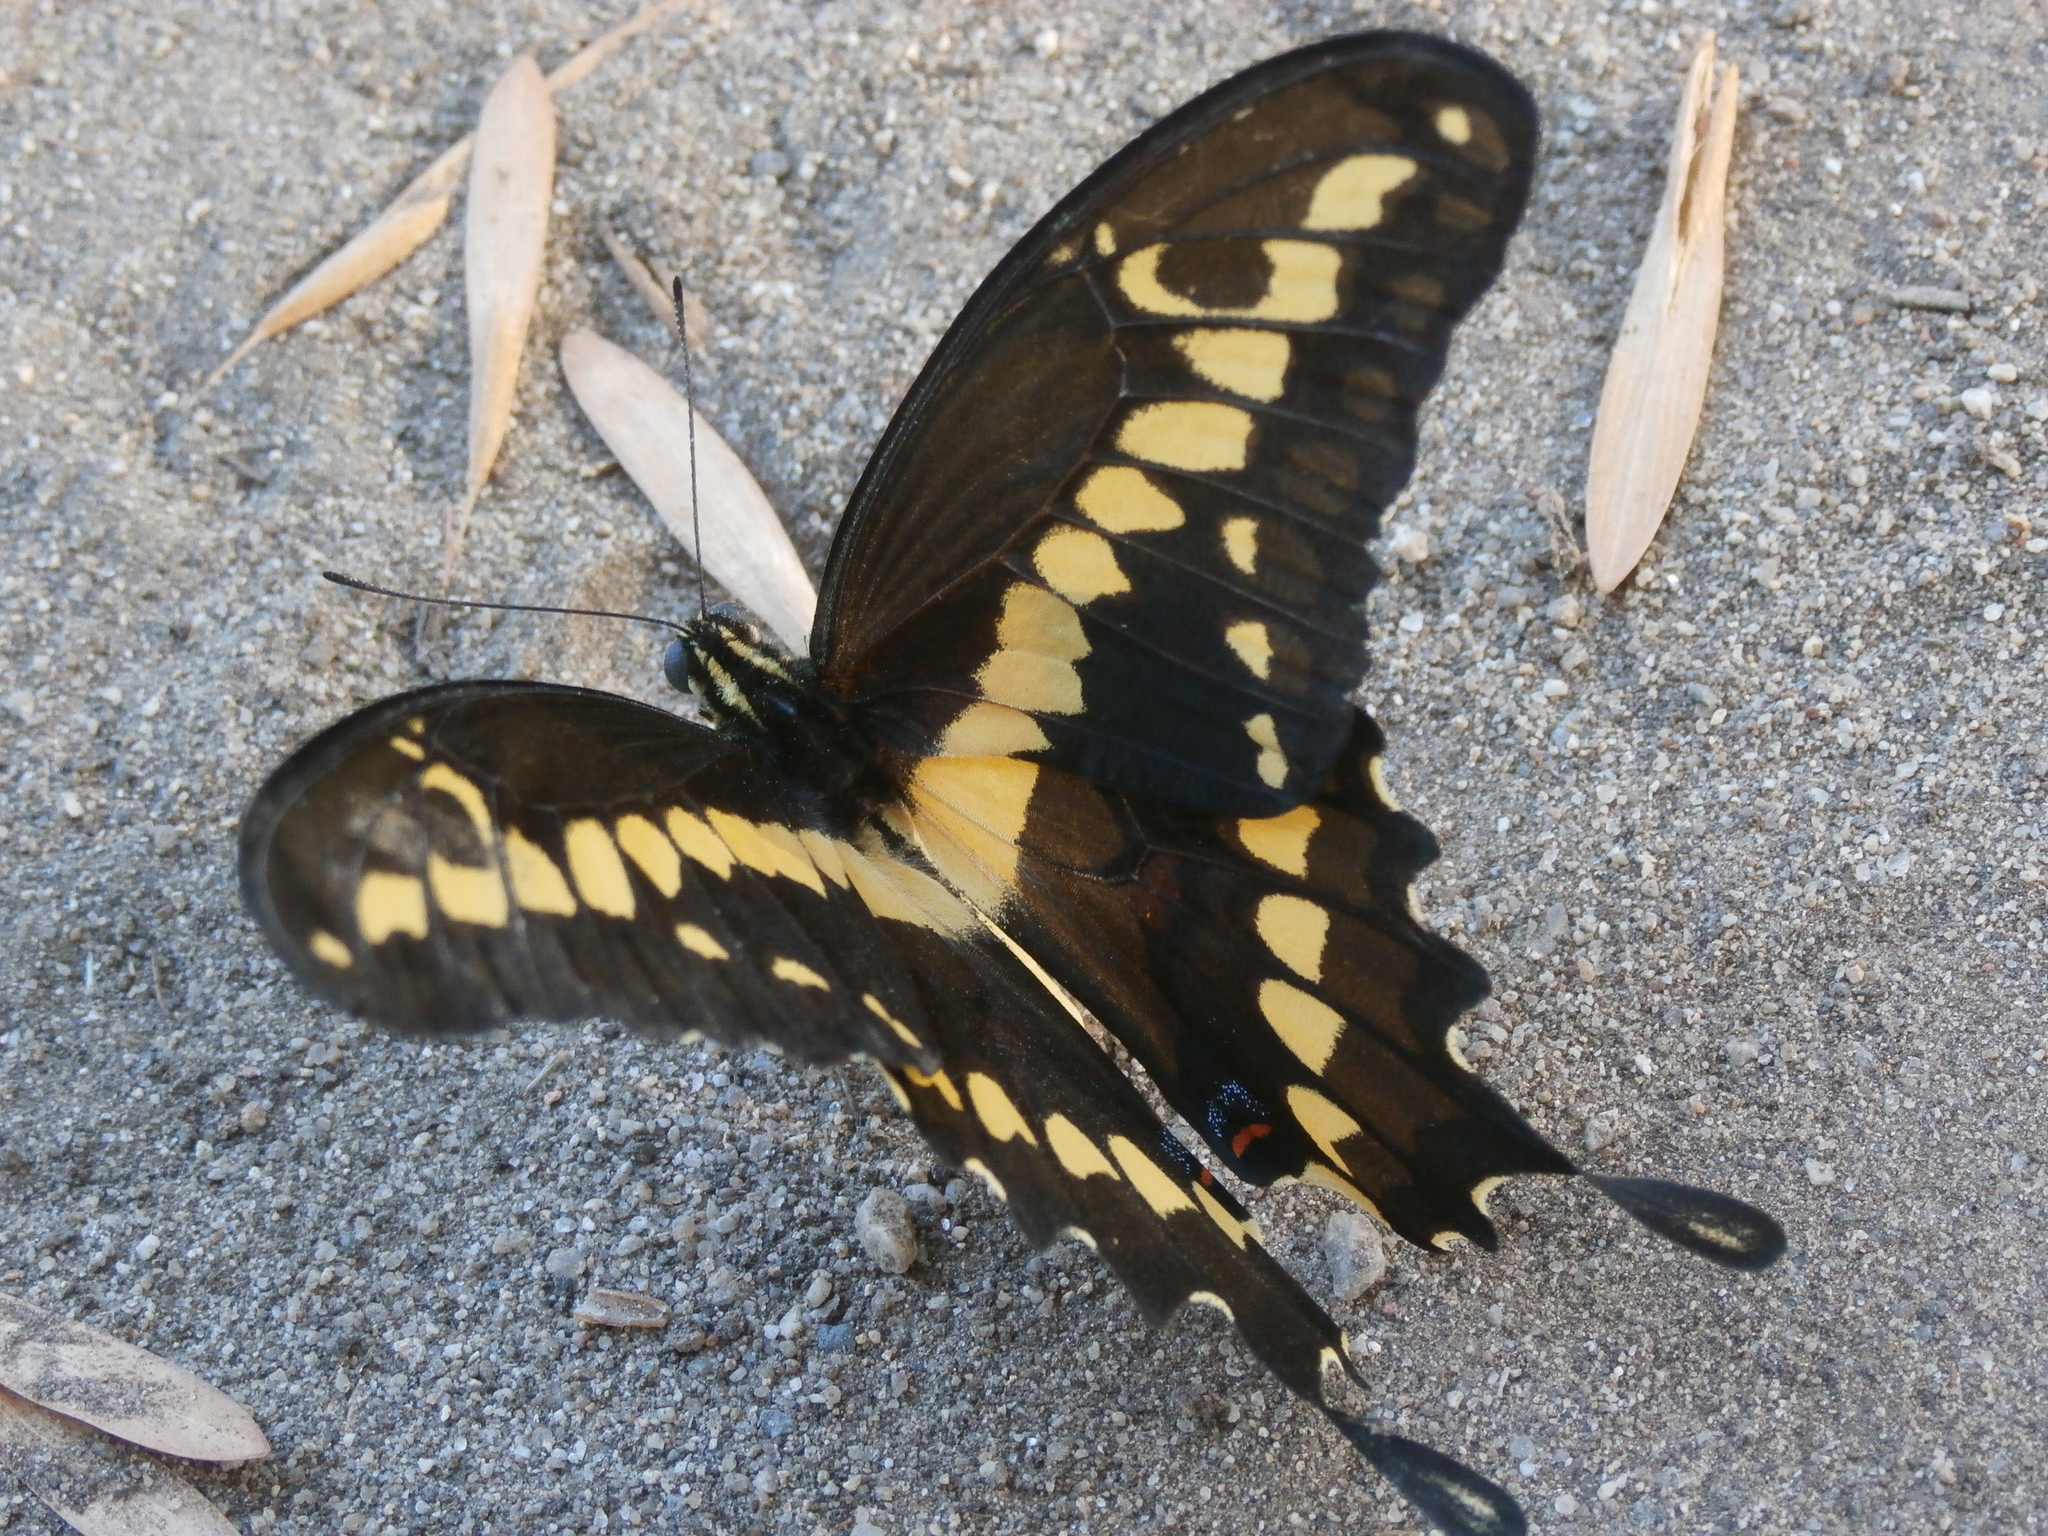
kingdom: Animalia
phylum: Arthropoda
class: Insecta
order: Lepidoptera
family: Papilionidae
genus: Papilio
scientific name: Papilio rumiko
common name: Western giant swallowtail
